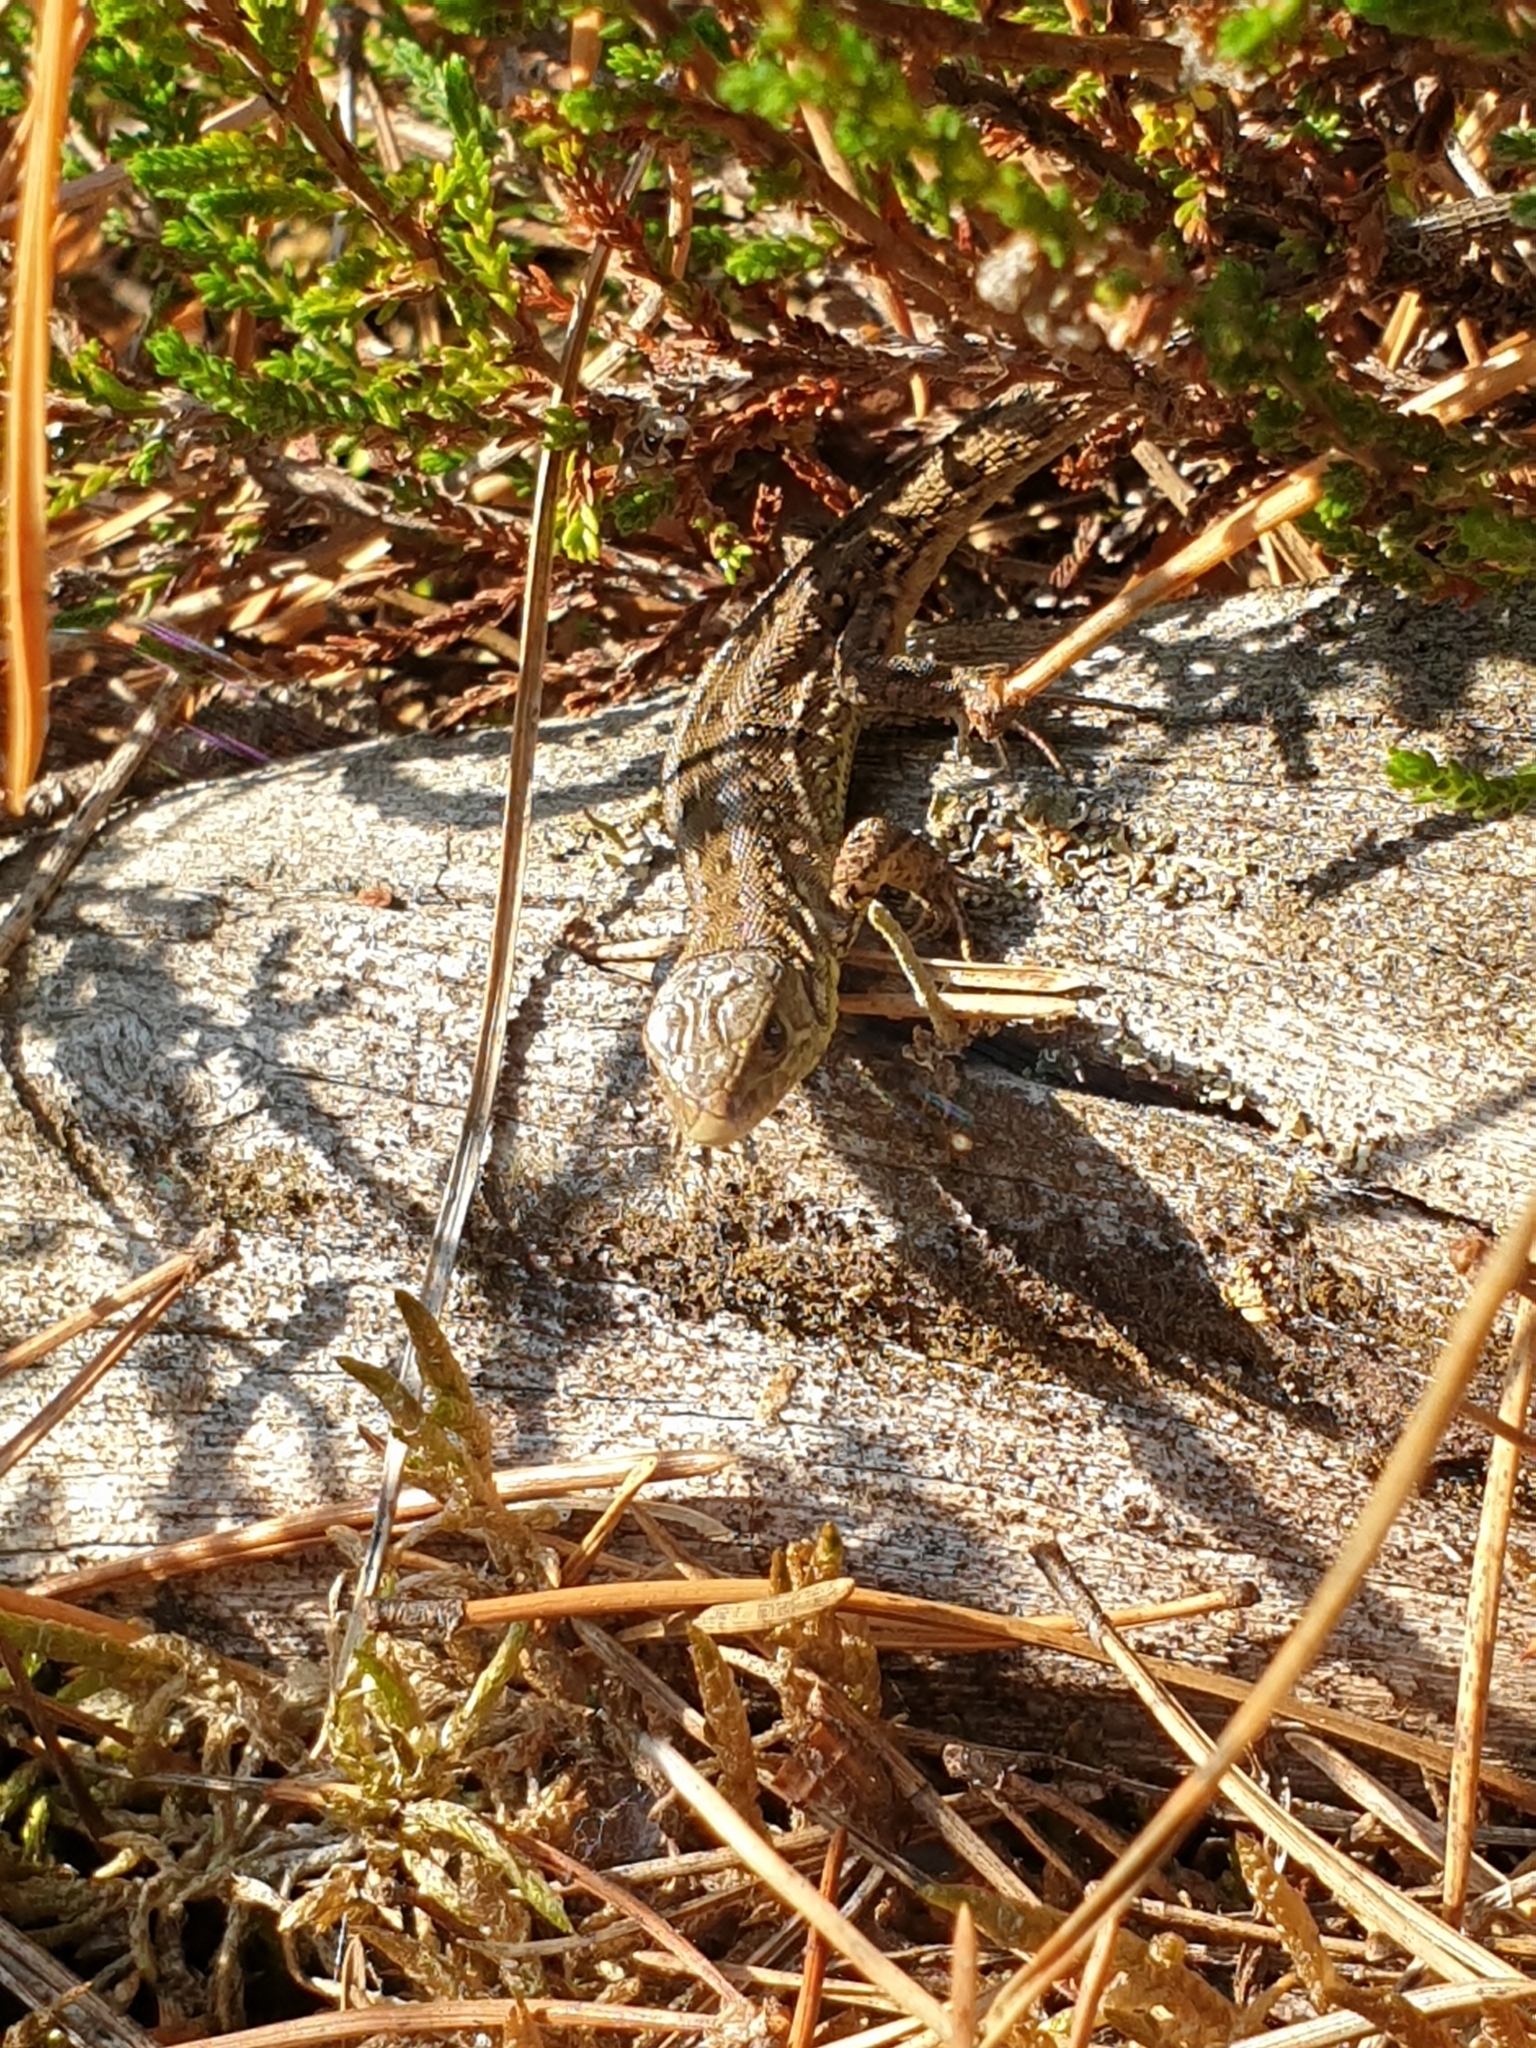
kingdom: Animalia
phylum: Chordata
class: Squamata
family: Lacertidae
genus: Lacerta
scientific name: Lacerta agilis
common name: Sand lizard
